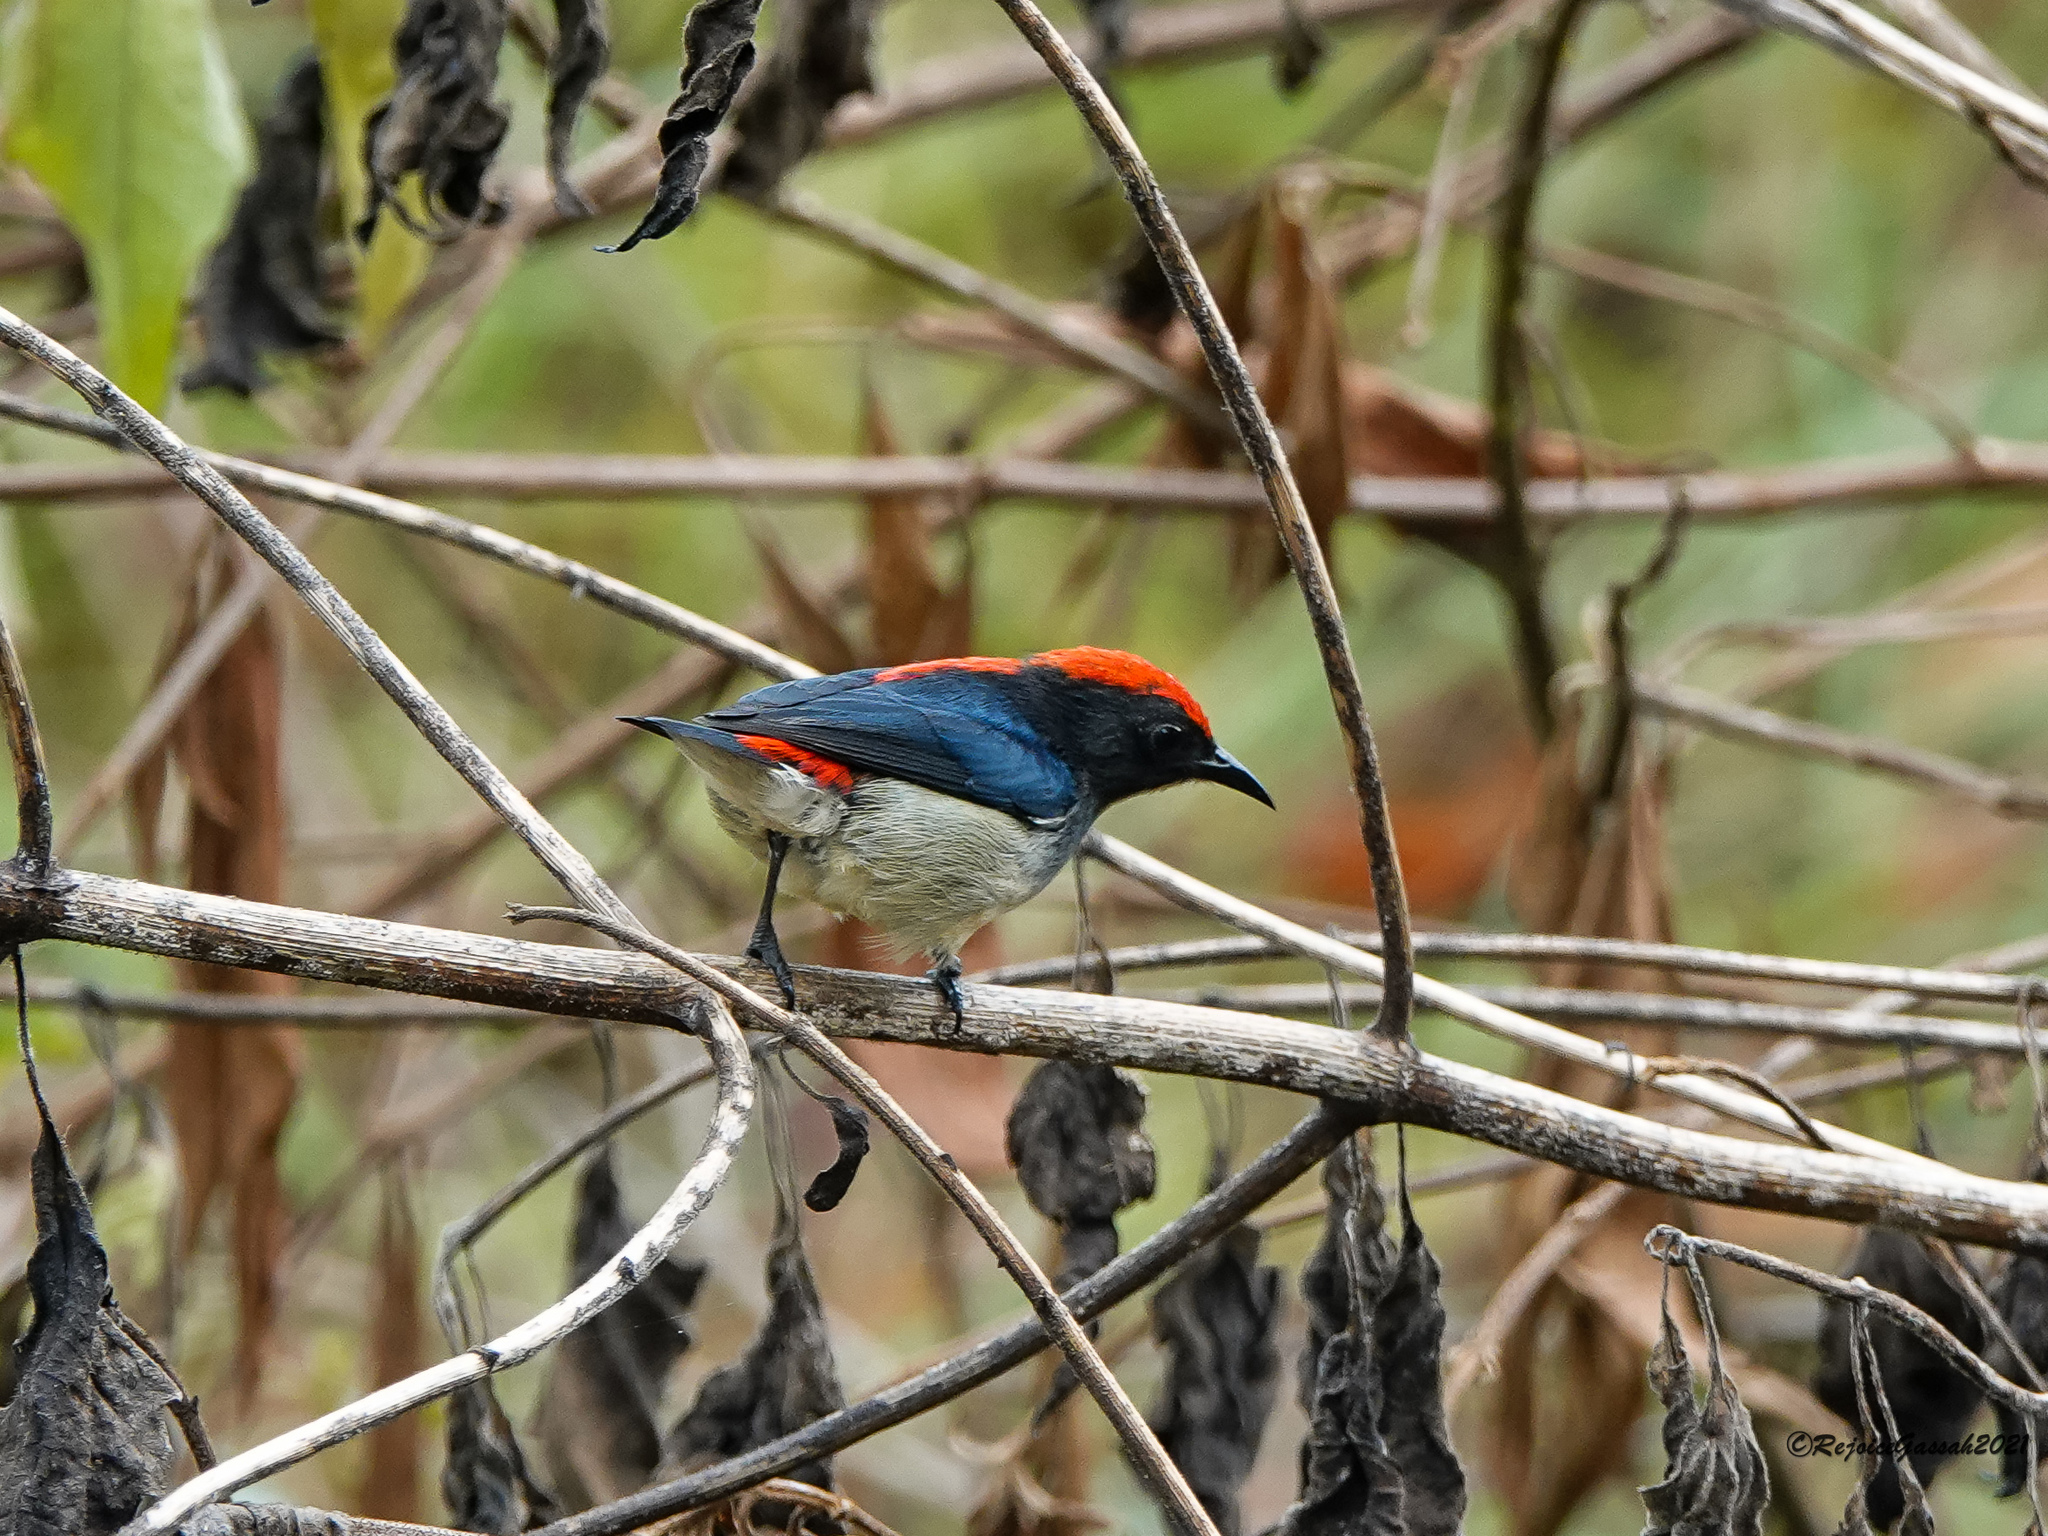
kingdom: Animalia
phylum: Chordata
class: Aves
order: Passeriformes
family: Dicaeidae
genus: Dicaeum
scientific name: Dicaeum cruentatum
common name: Scarlet-backed flowerpecker
